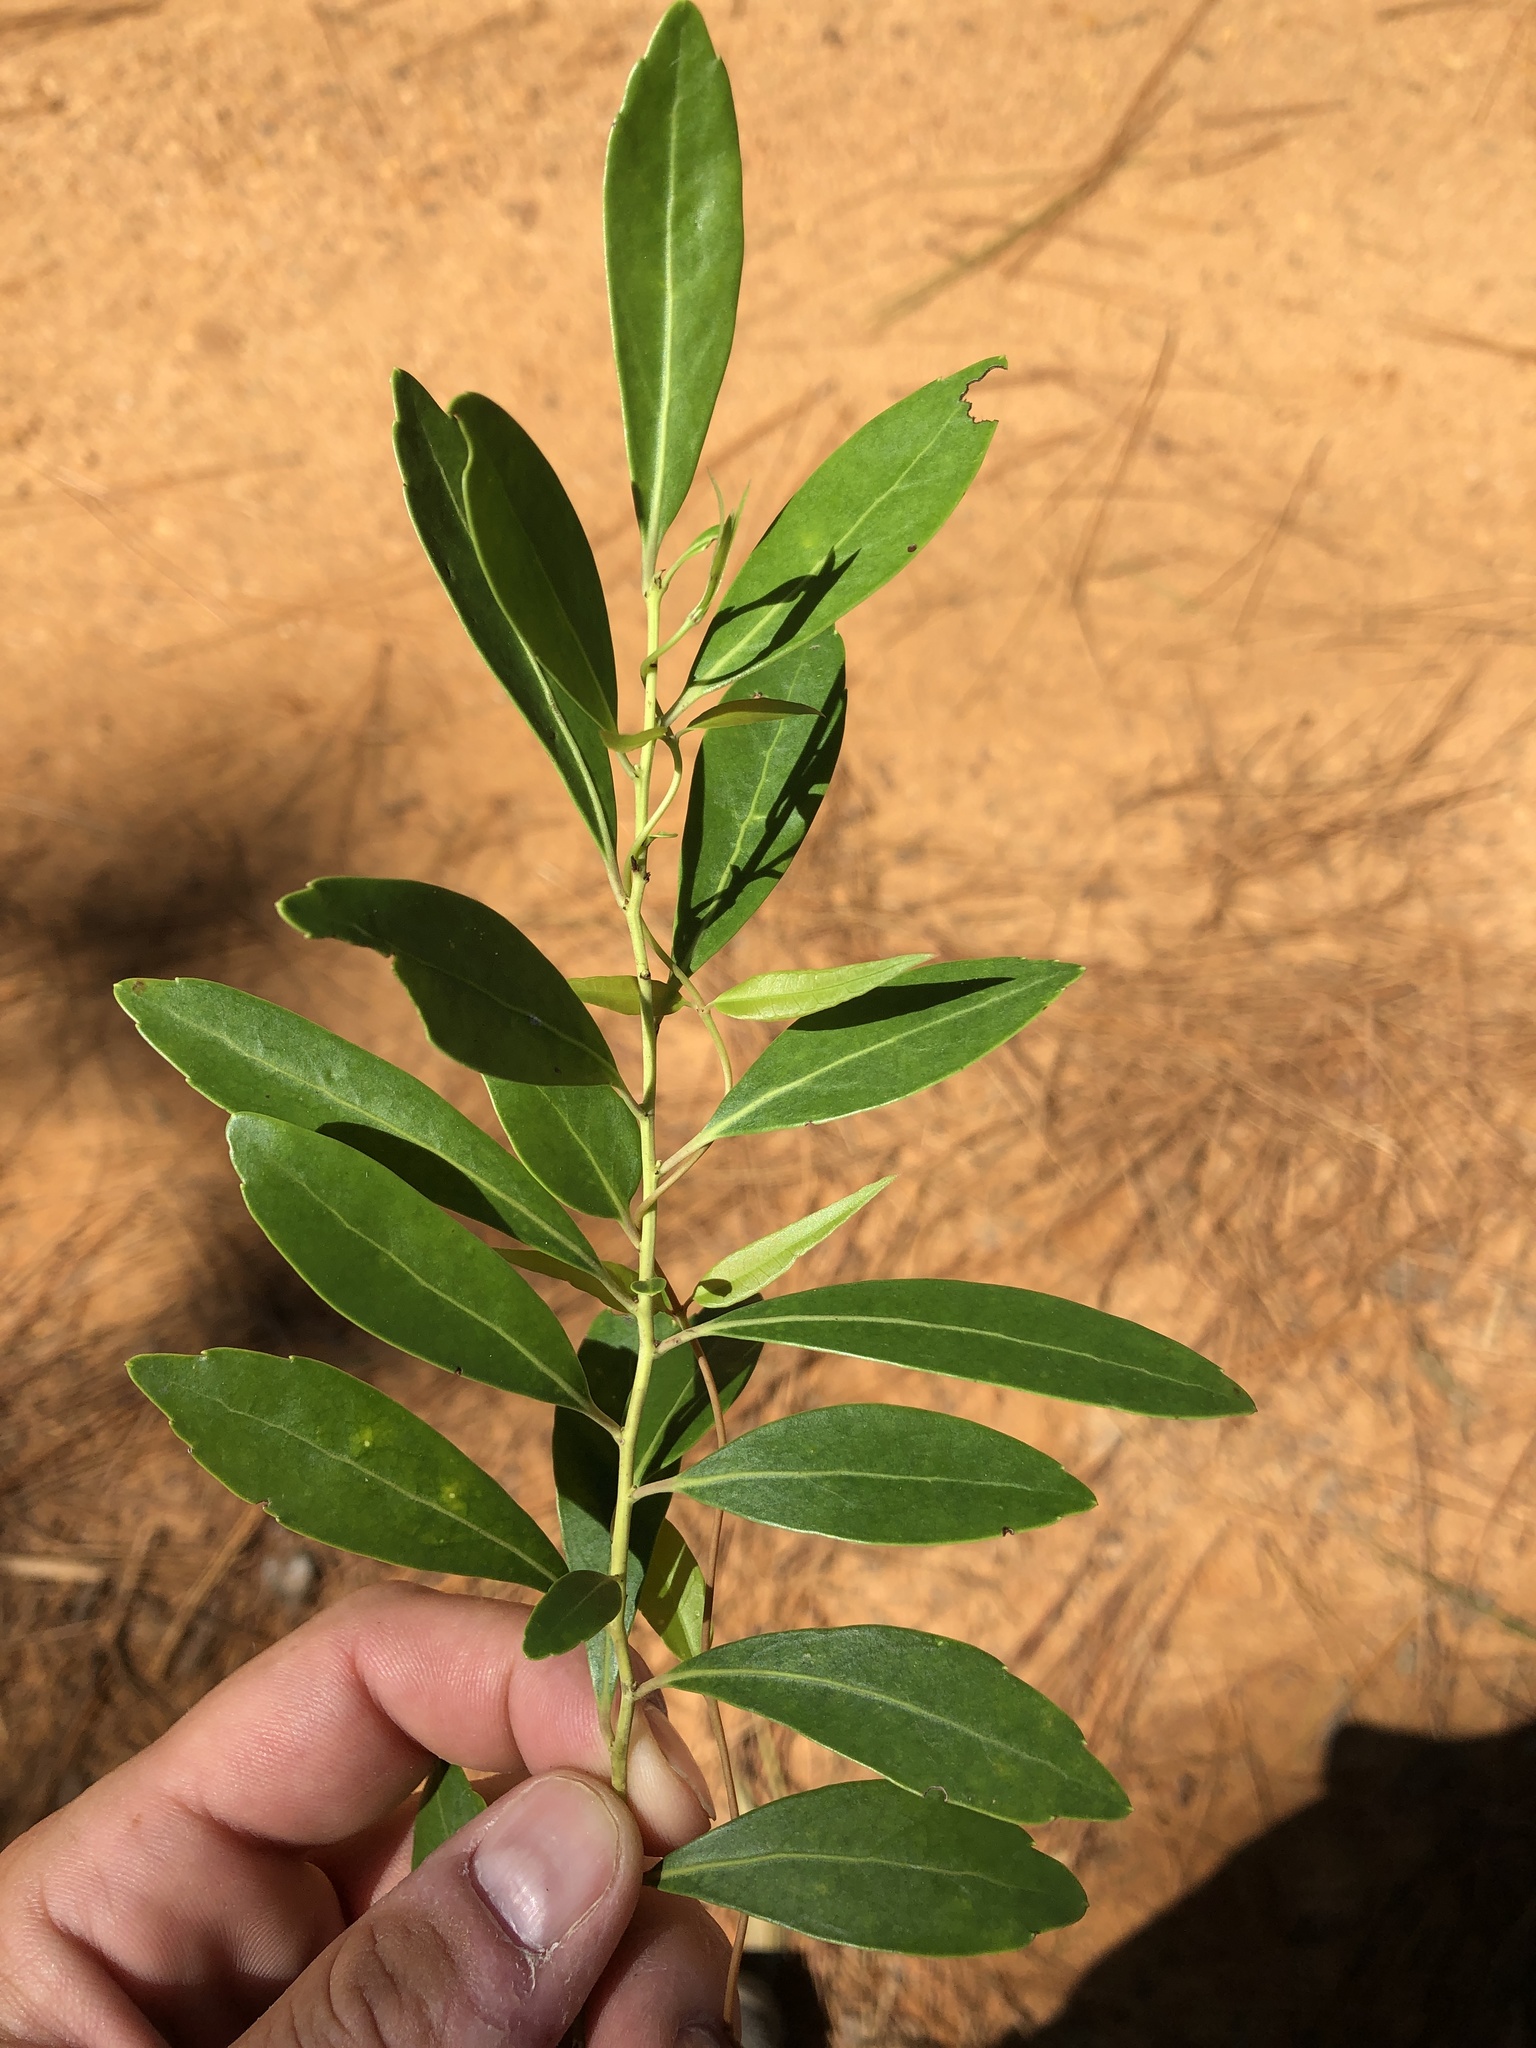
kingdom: Plantae
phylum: Tracheophyta
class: Magnoliopsida
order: Aquifoliales
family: Aquifoliaceae
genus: Ilex
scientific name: Ilex glabra
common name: Bitter gallberry
